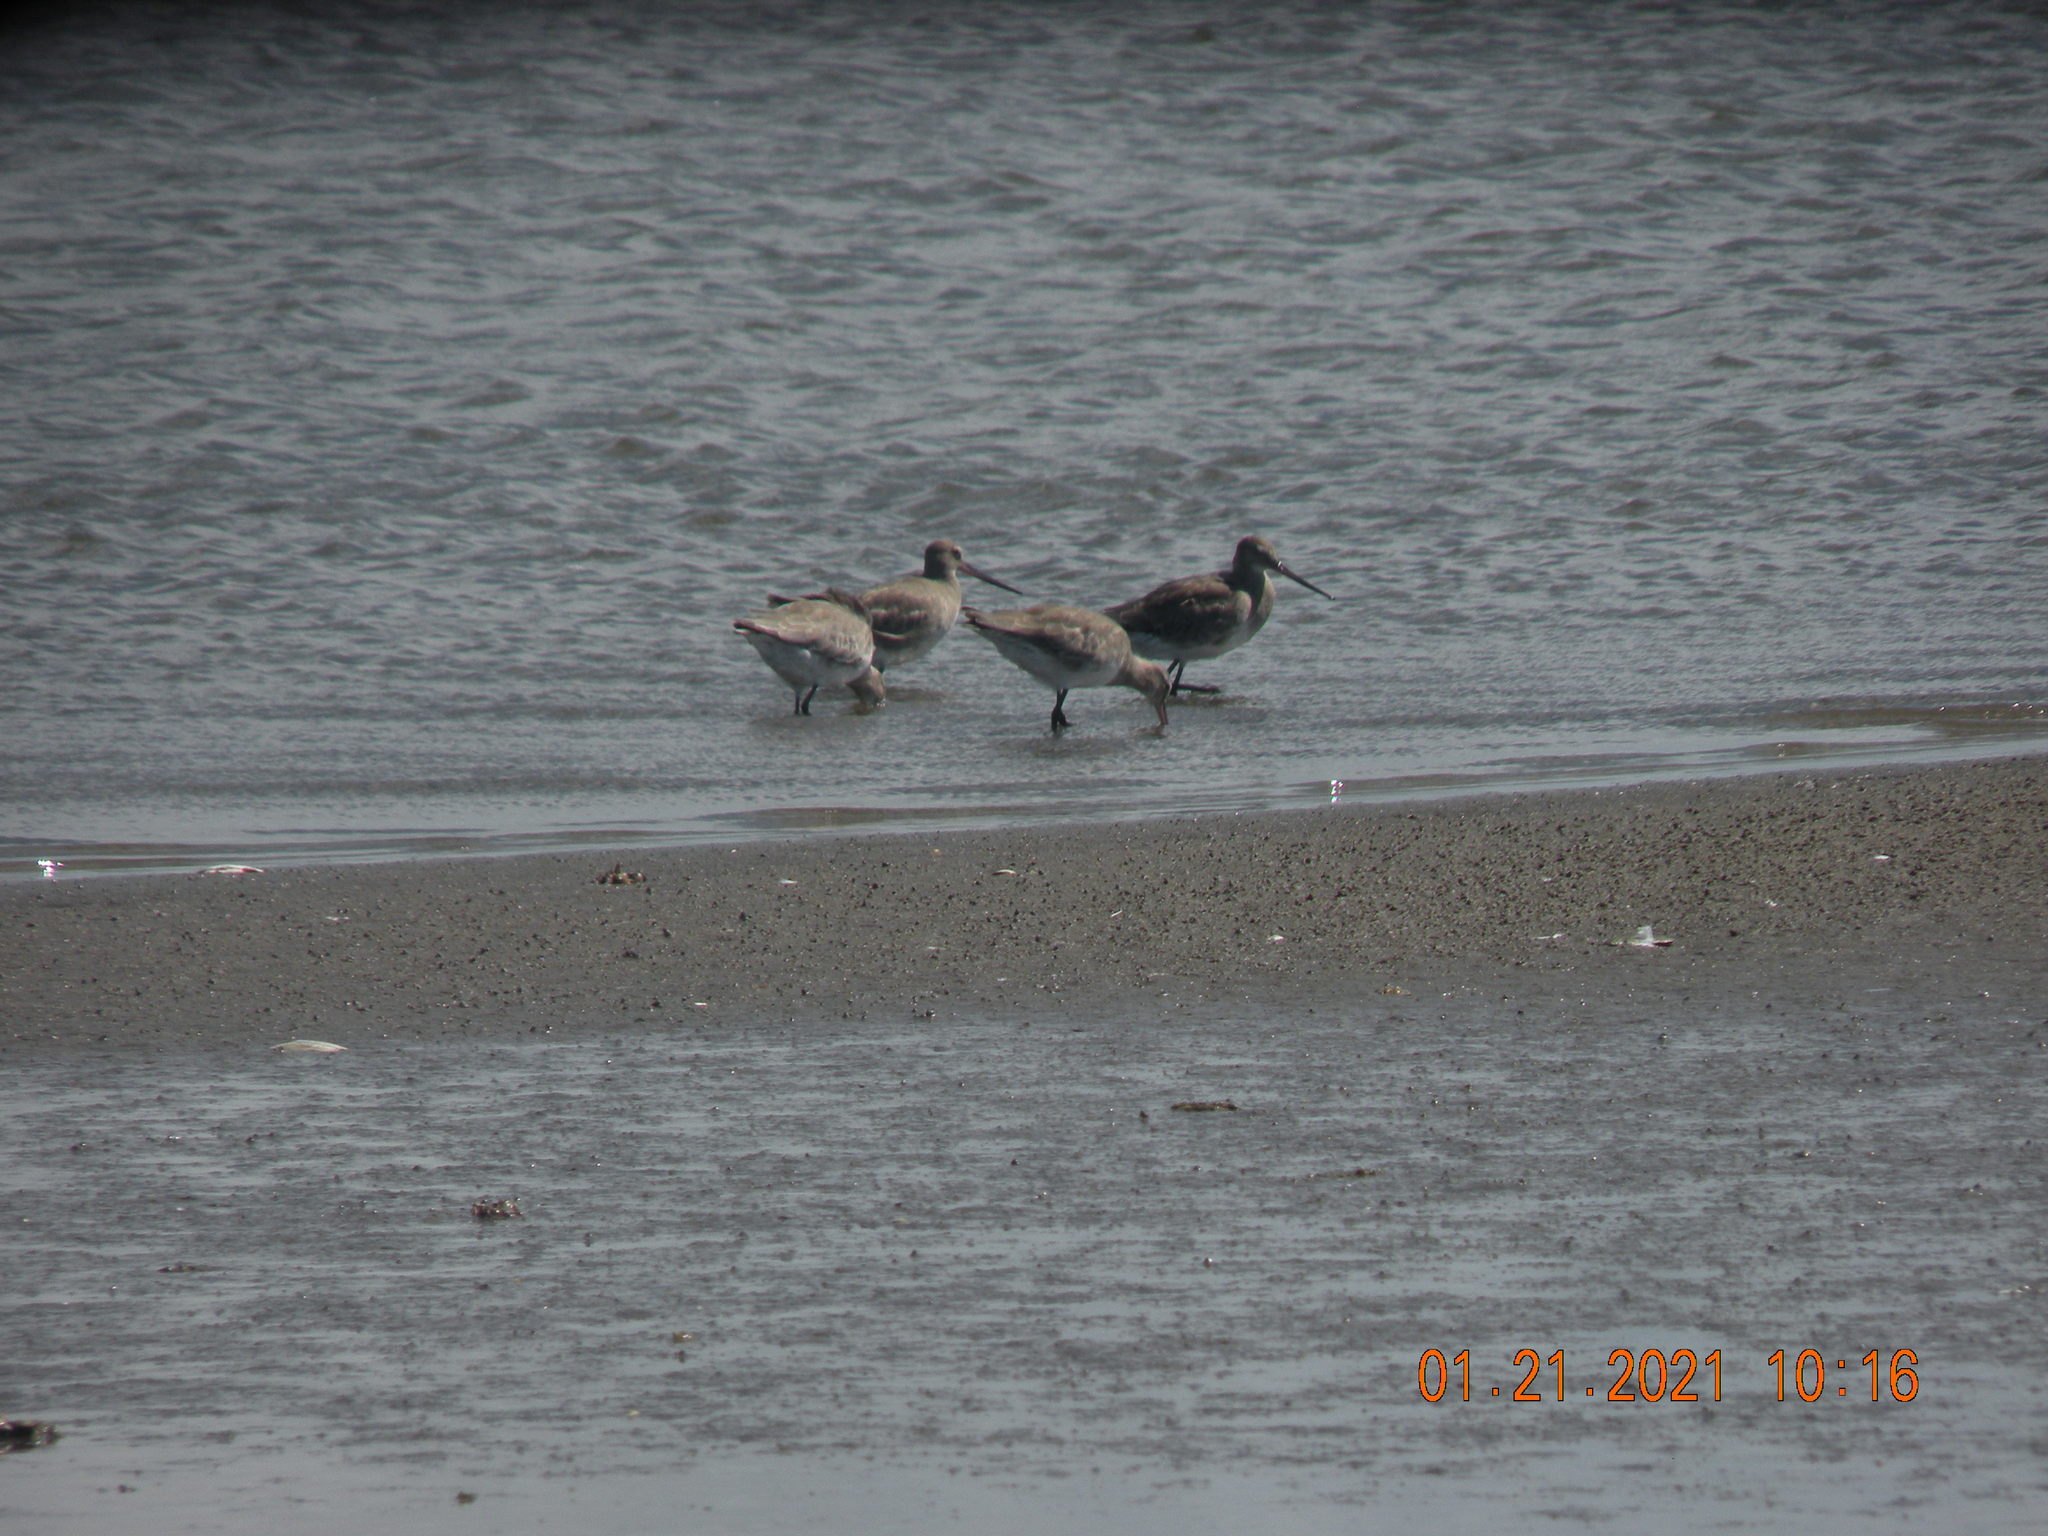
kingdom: Animalia
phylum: Chordata
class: Aves
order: Charadriiformes
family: Scolopacidae
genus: Limosa
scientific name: Limosa haemastica
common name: Hudsonian godwit
